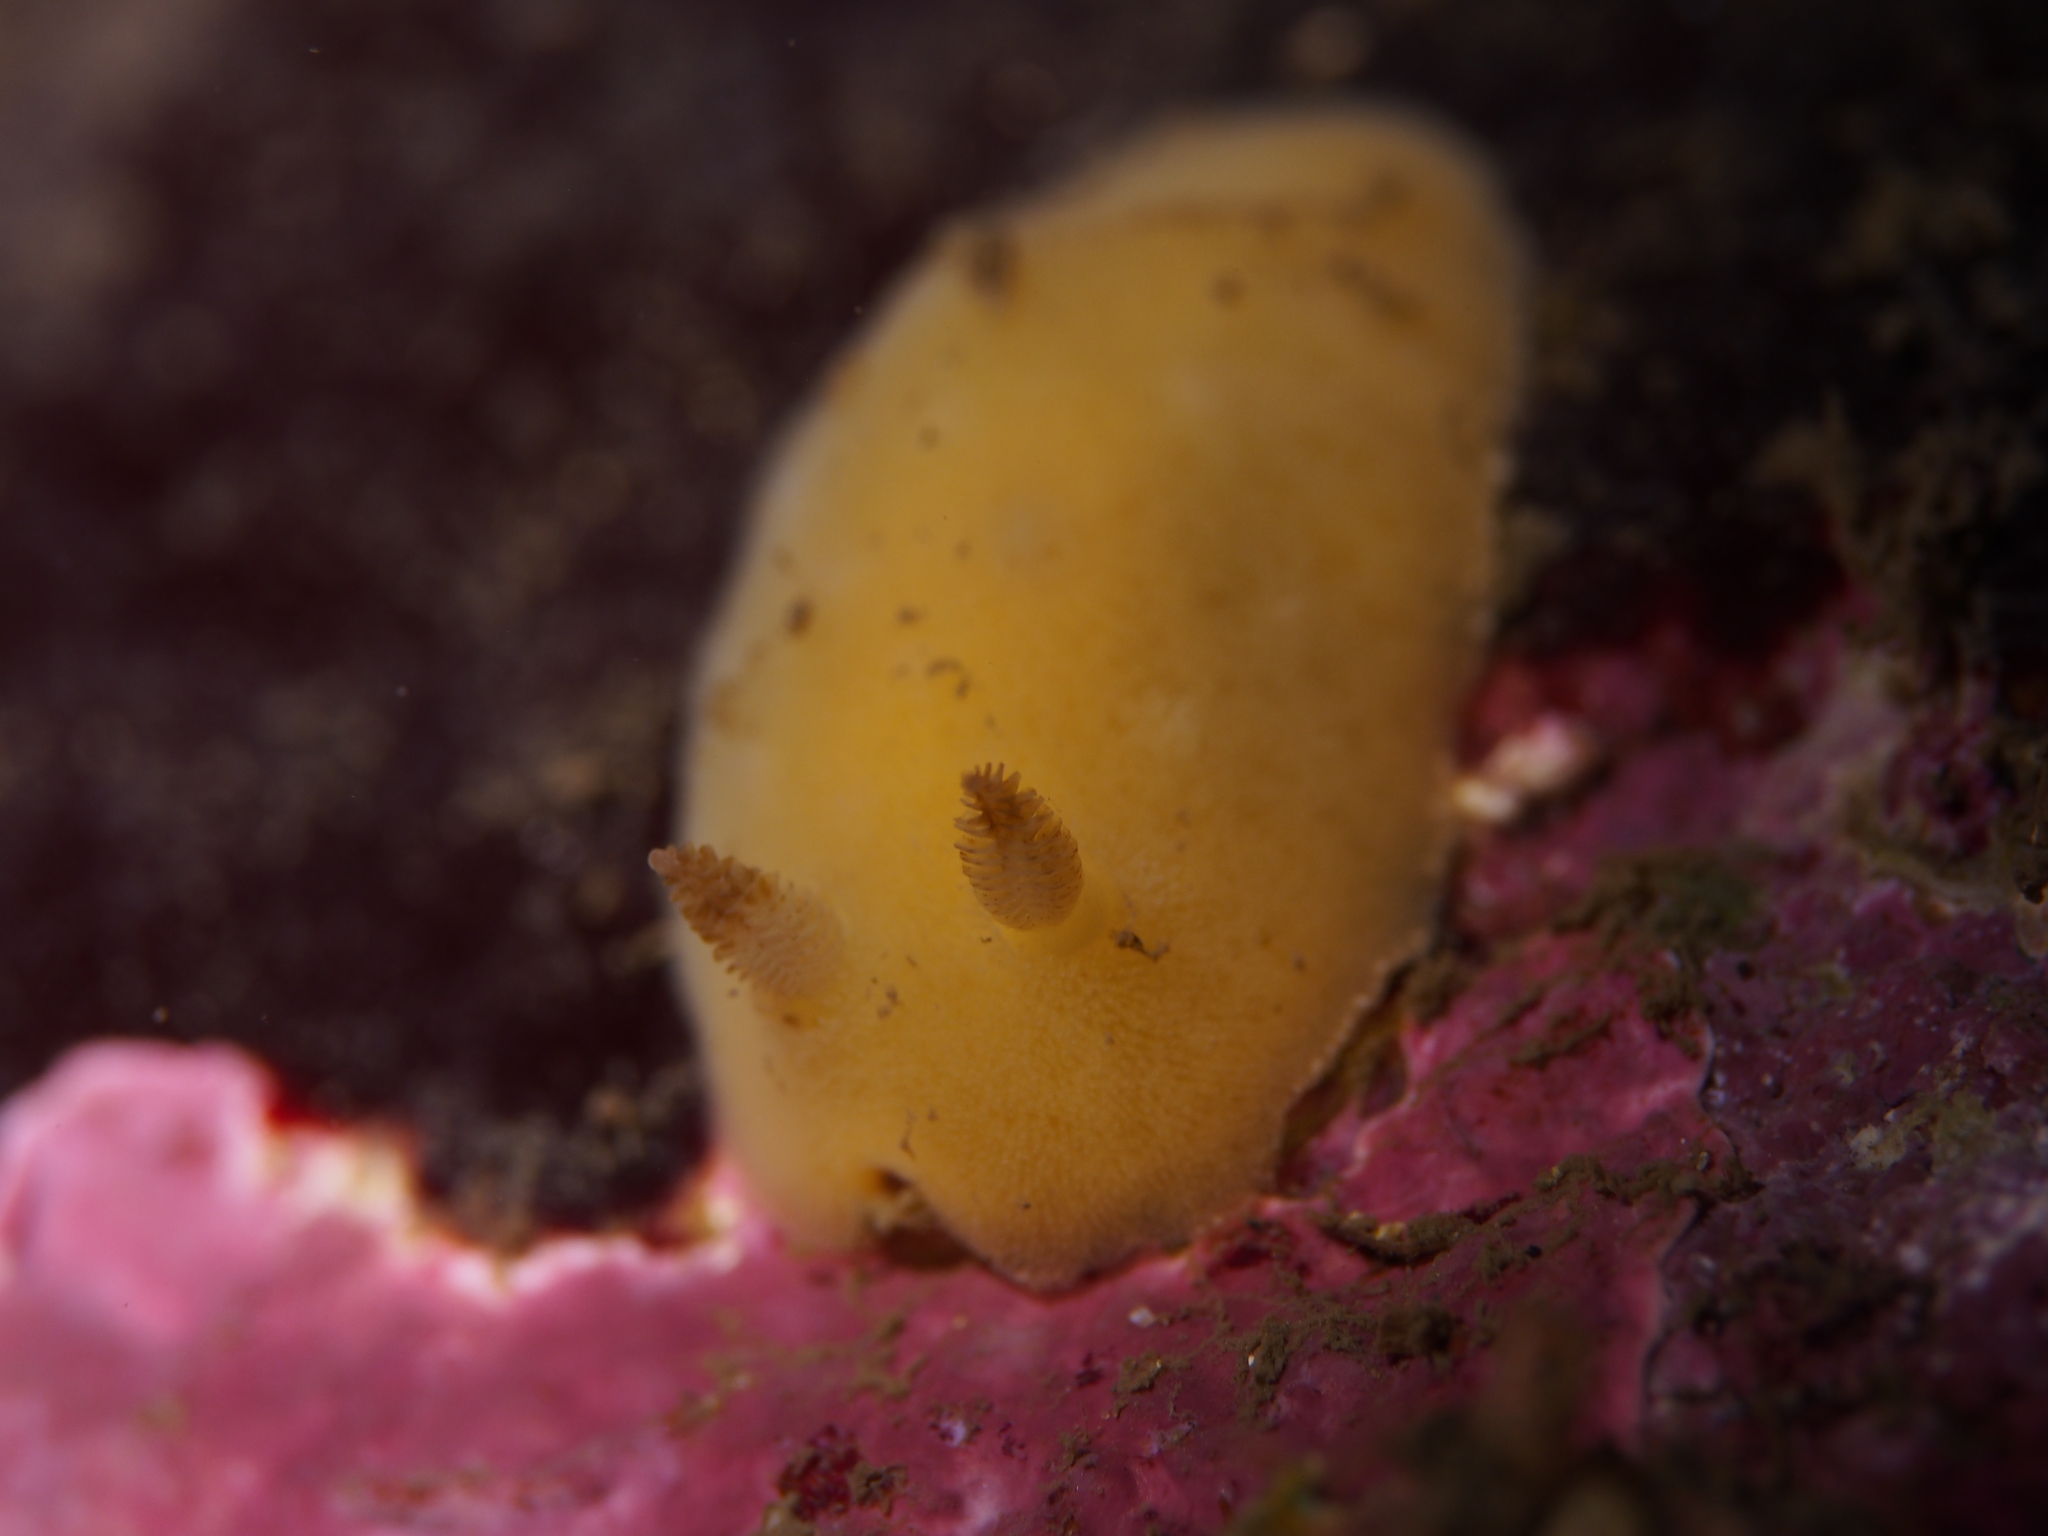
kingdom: Animalia
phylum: Mollusca
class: Gastropoda
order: Nudibranchia
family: Discodorididae
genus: Jorunna
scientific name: Jorunna tomentosa
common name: Grey sea slug
